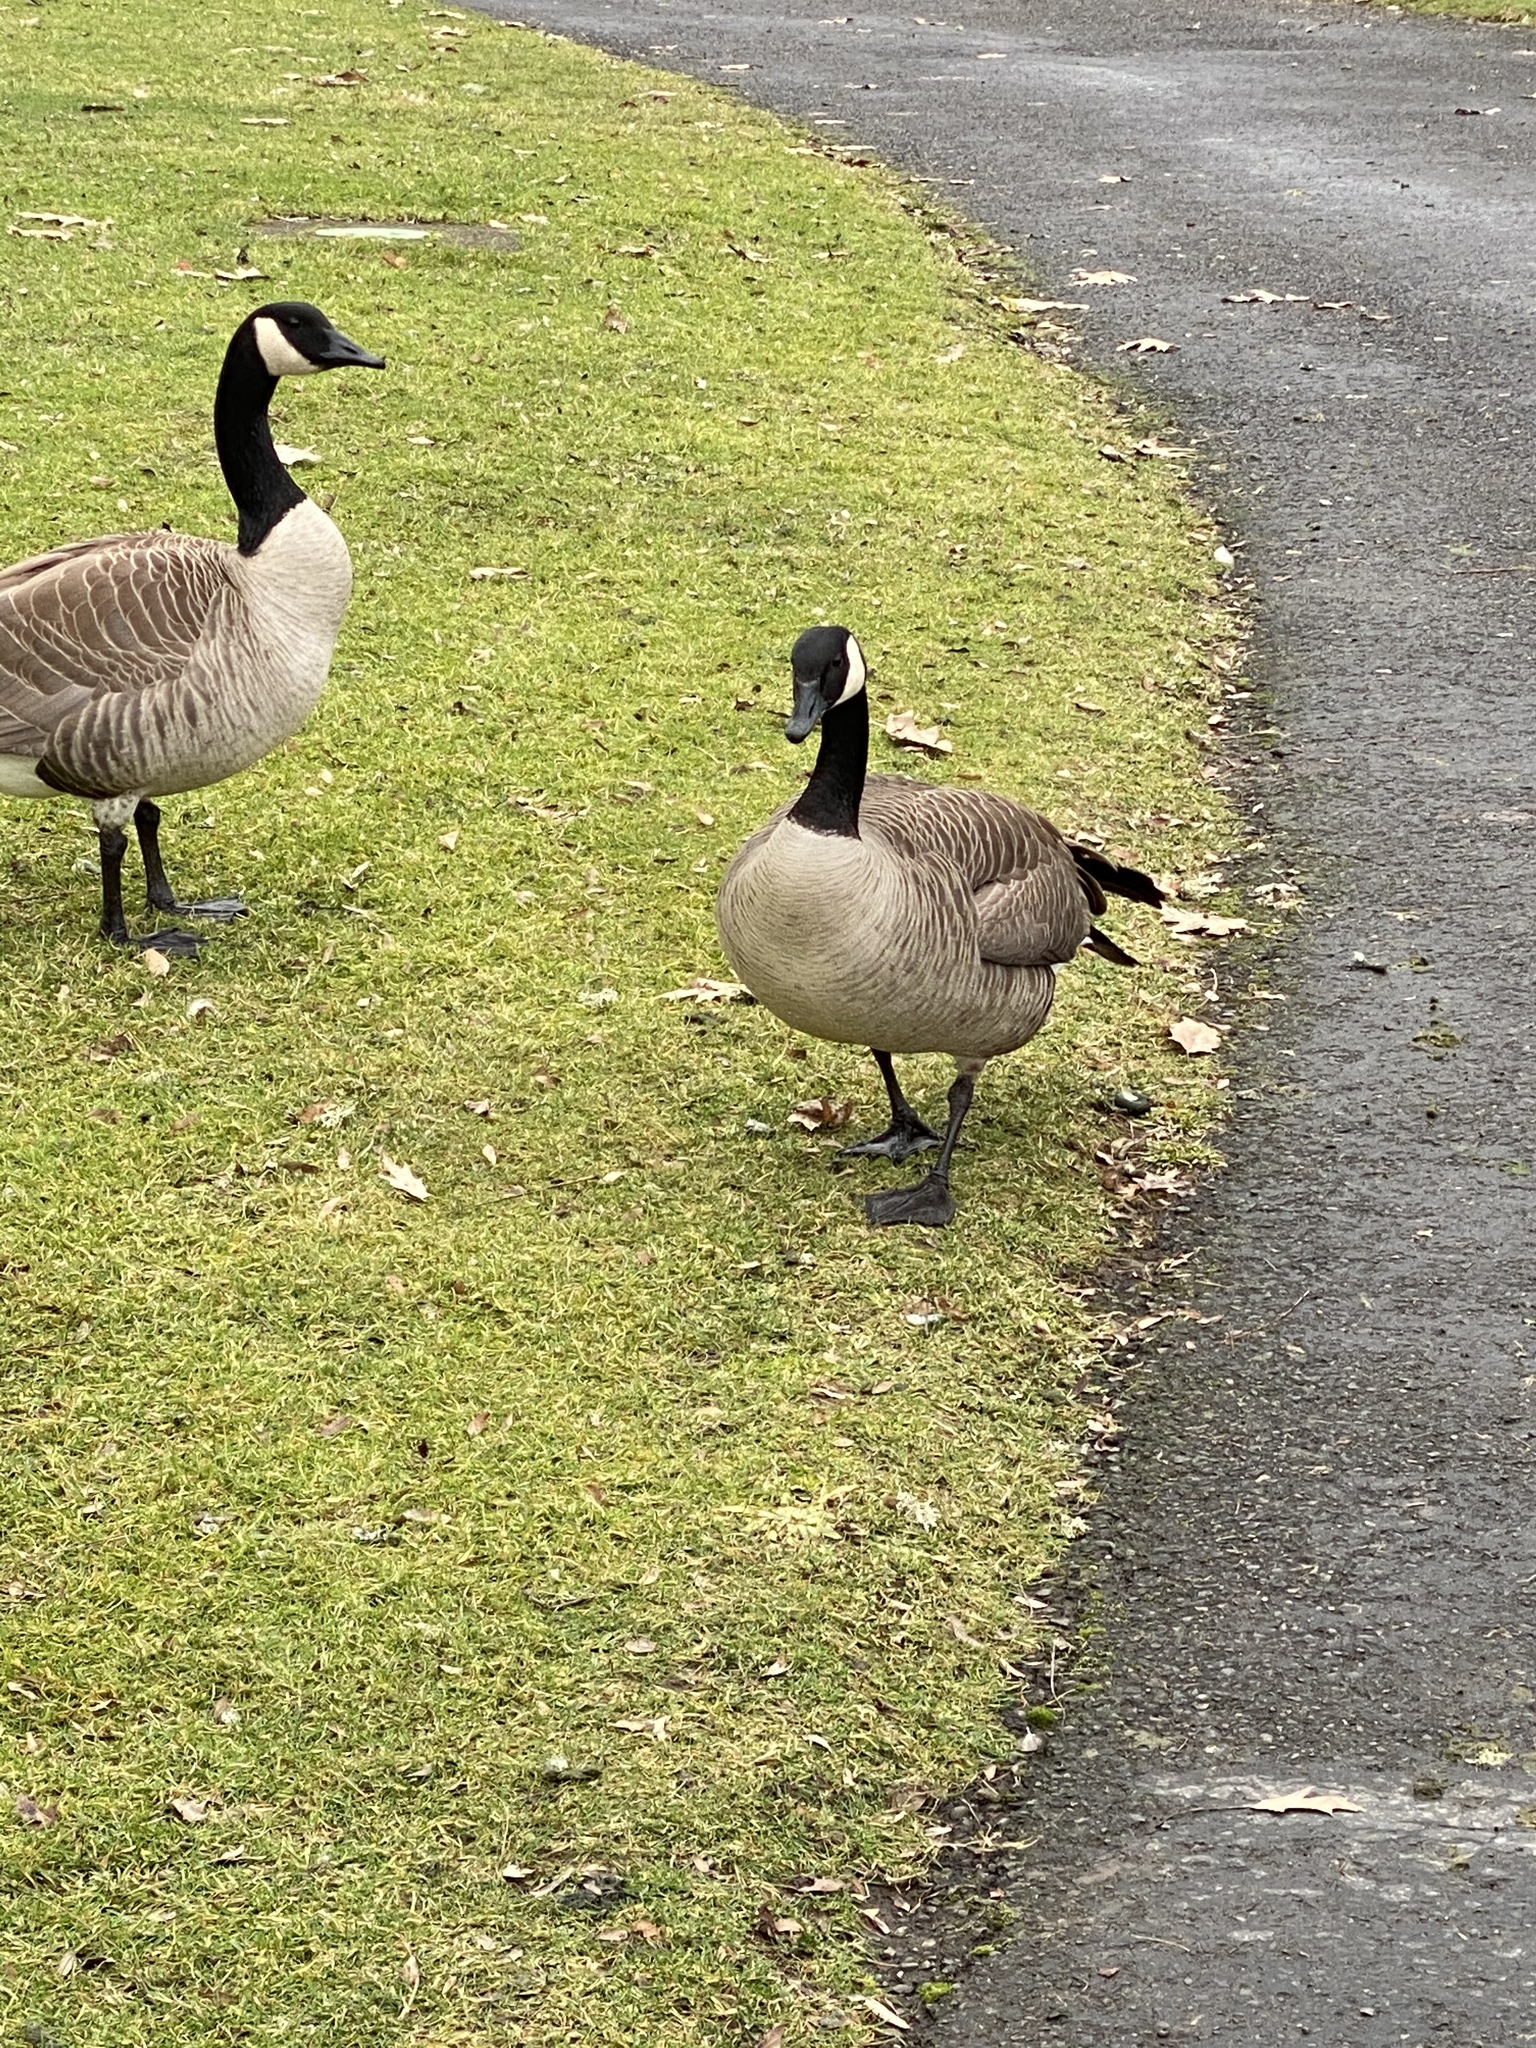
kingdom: Animalia
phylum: Chordata
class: Aves
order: Anseriformes
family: Anatidae
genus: Branta
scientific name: Branta canadensis
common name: Canada goose
